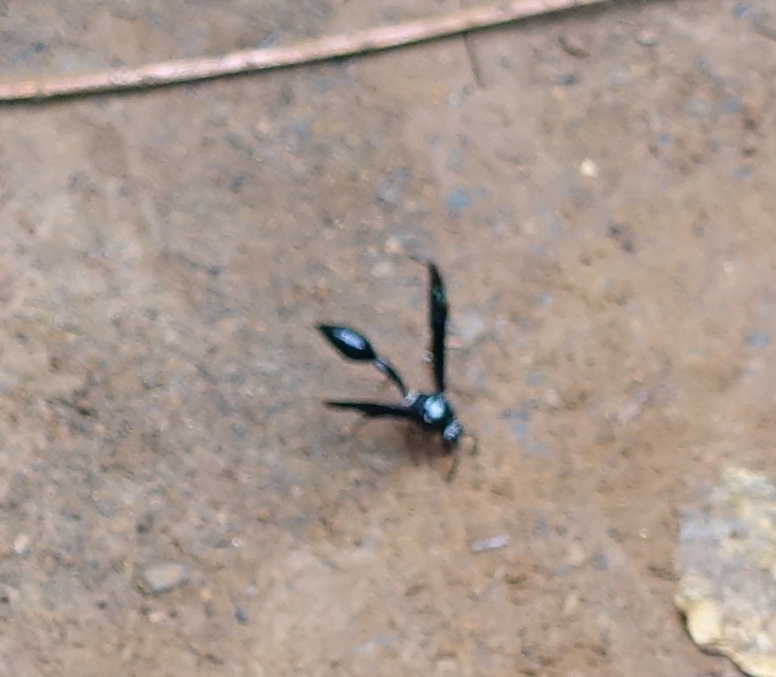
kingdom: Animalia
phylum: Arthropoda
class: Insecta
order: Hymenoptera
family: Eumenidae
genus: Phimenes
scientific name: Phimenes curvatus
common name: Black delta vespid wasp
